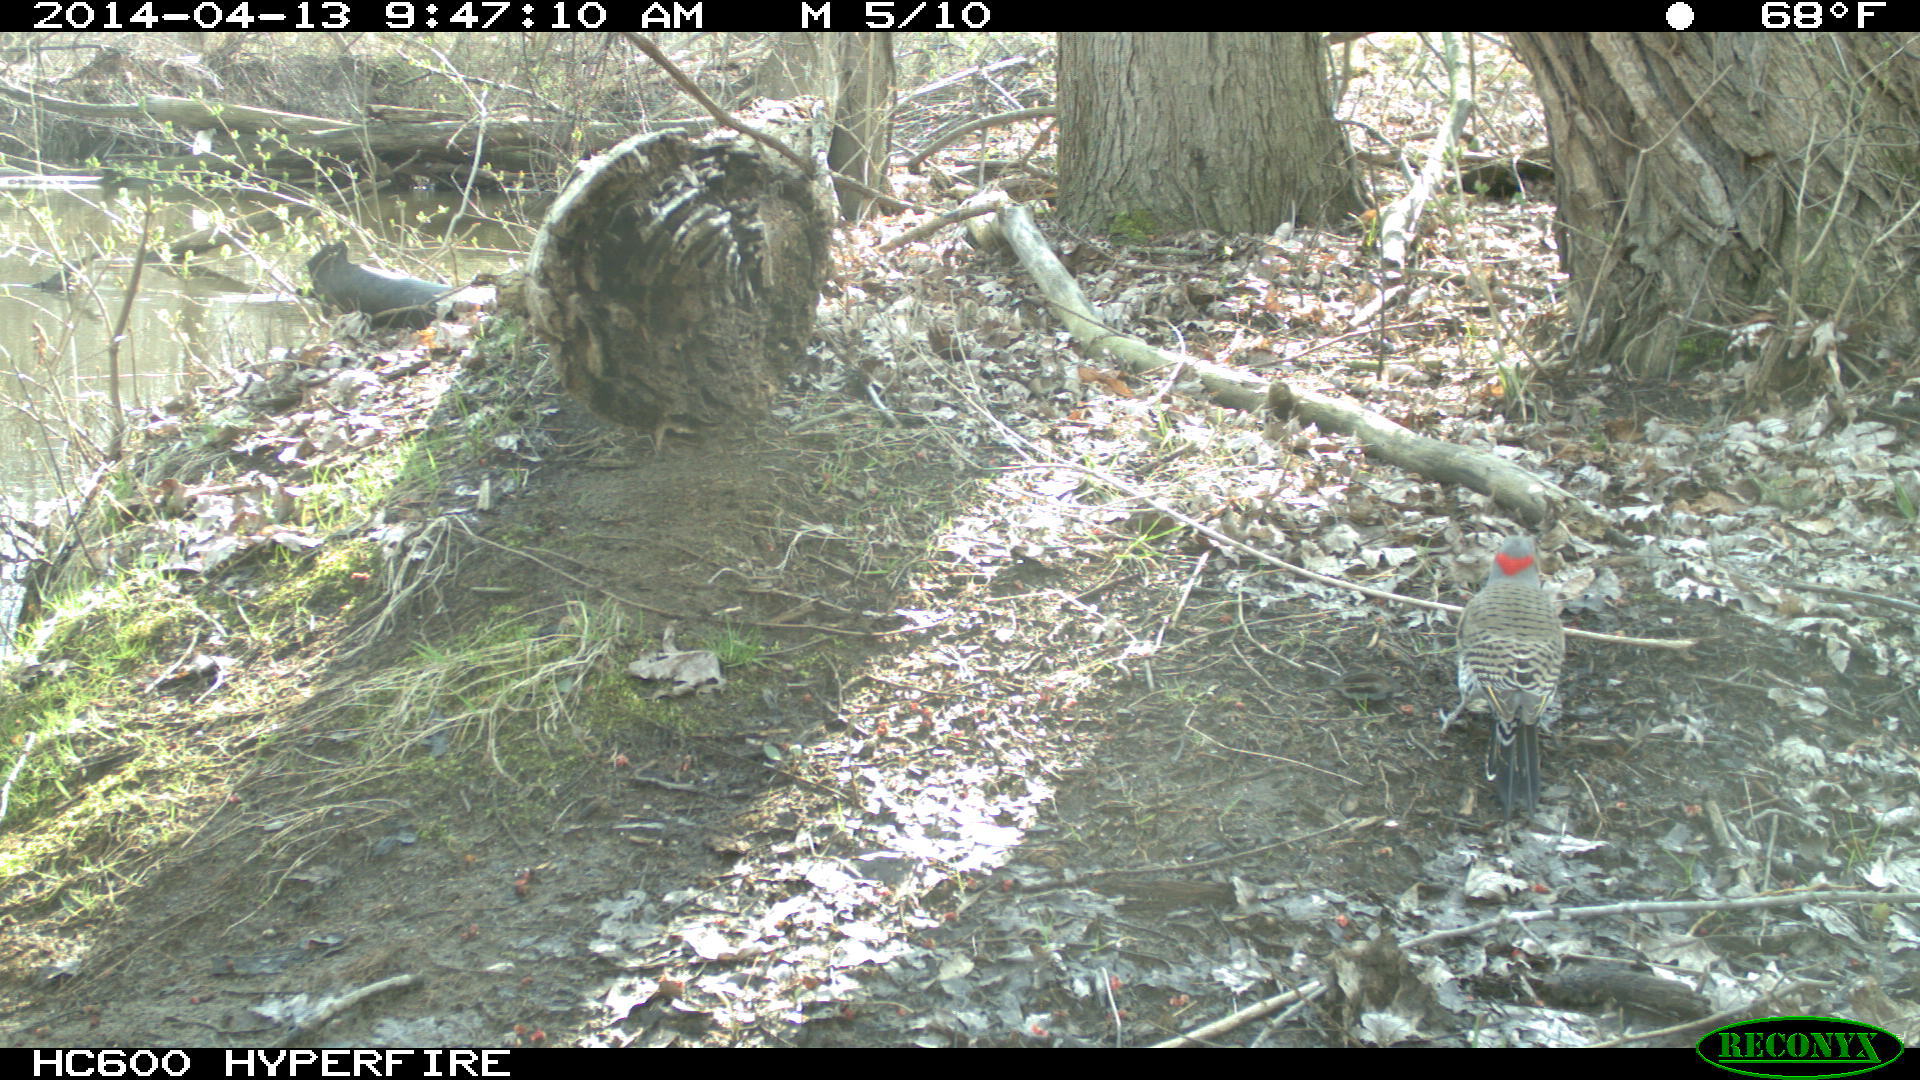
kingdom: Animalia
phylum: Chordata
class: Aves
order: Piciformes
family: Picidae
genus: Colaptes
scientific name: Colaptes auratus
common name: Northern flicker
